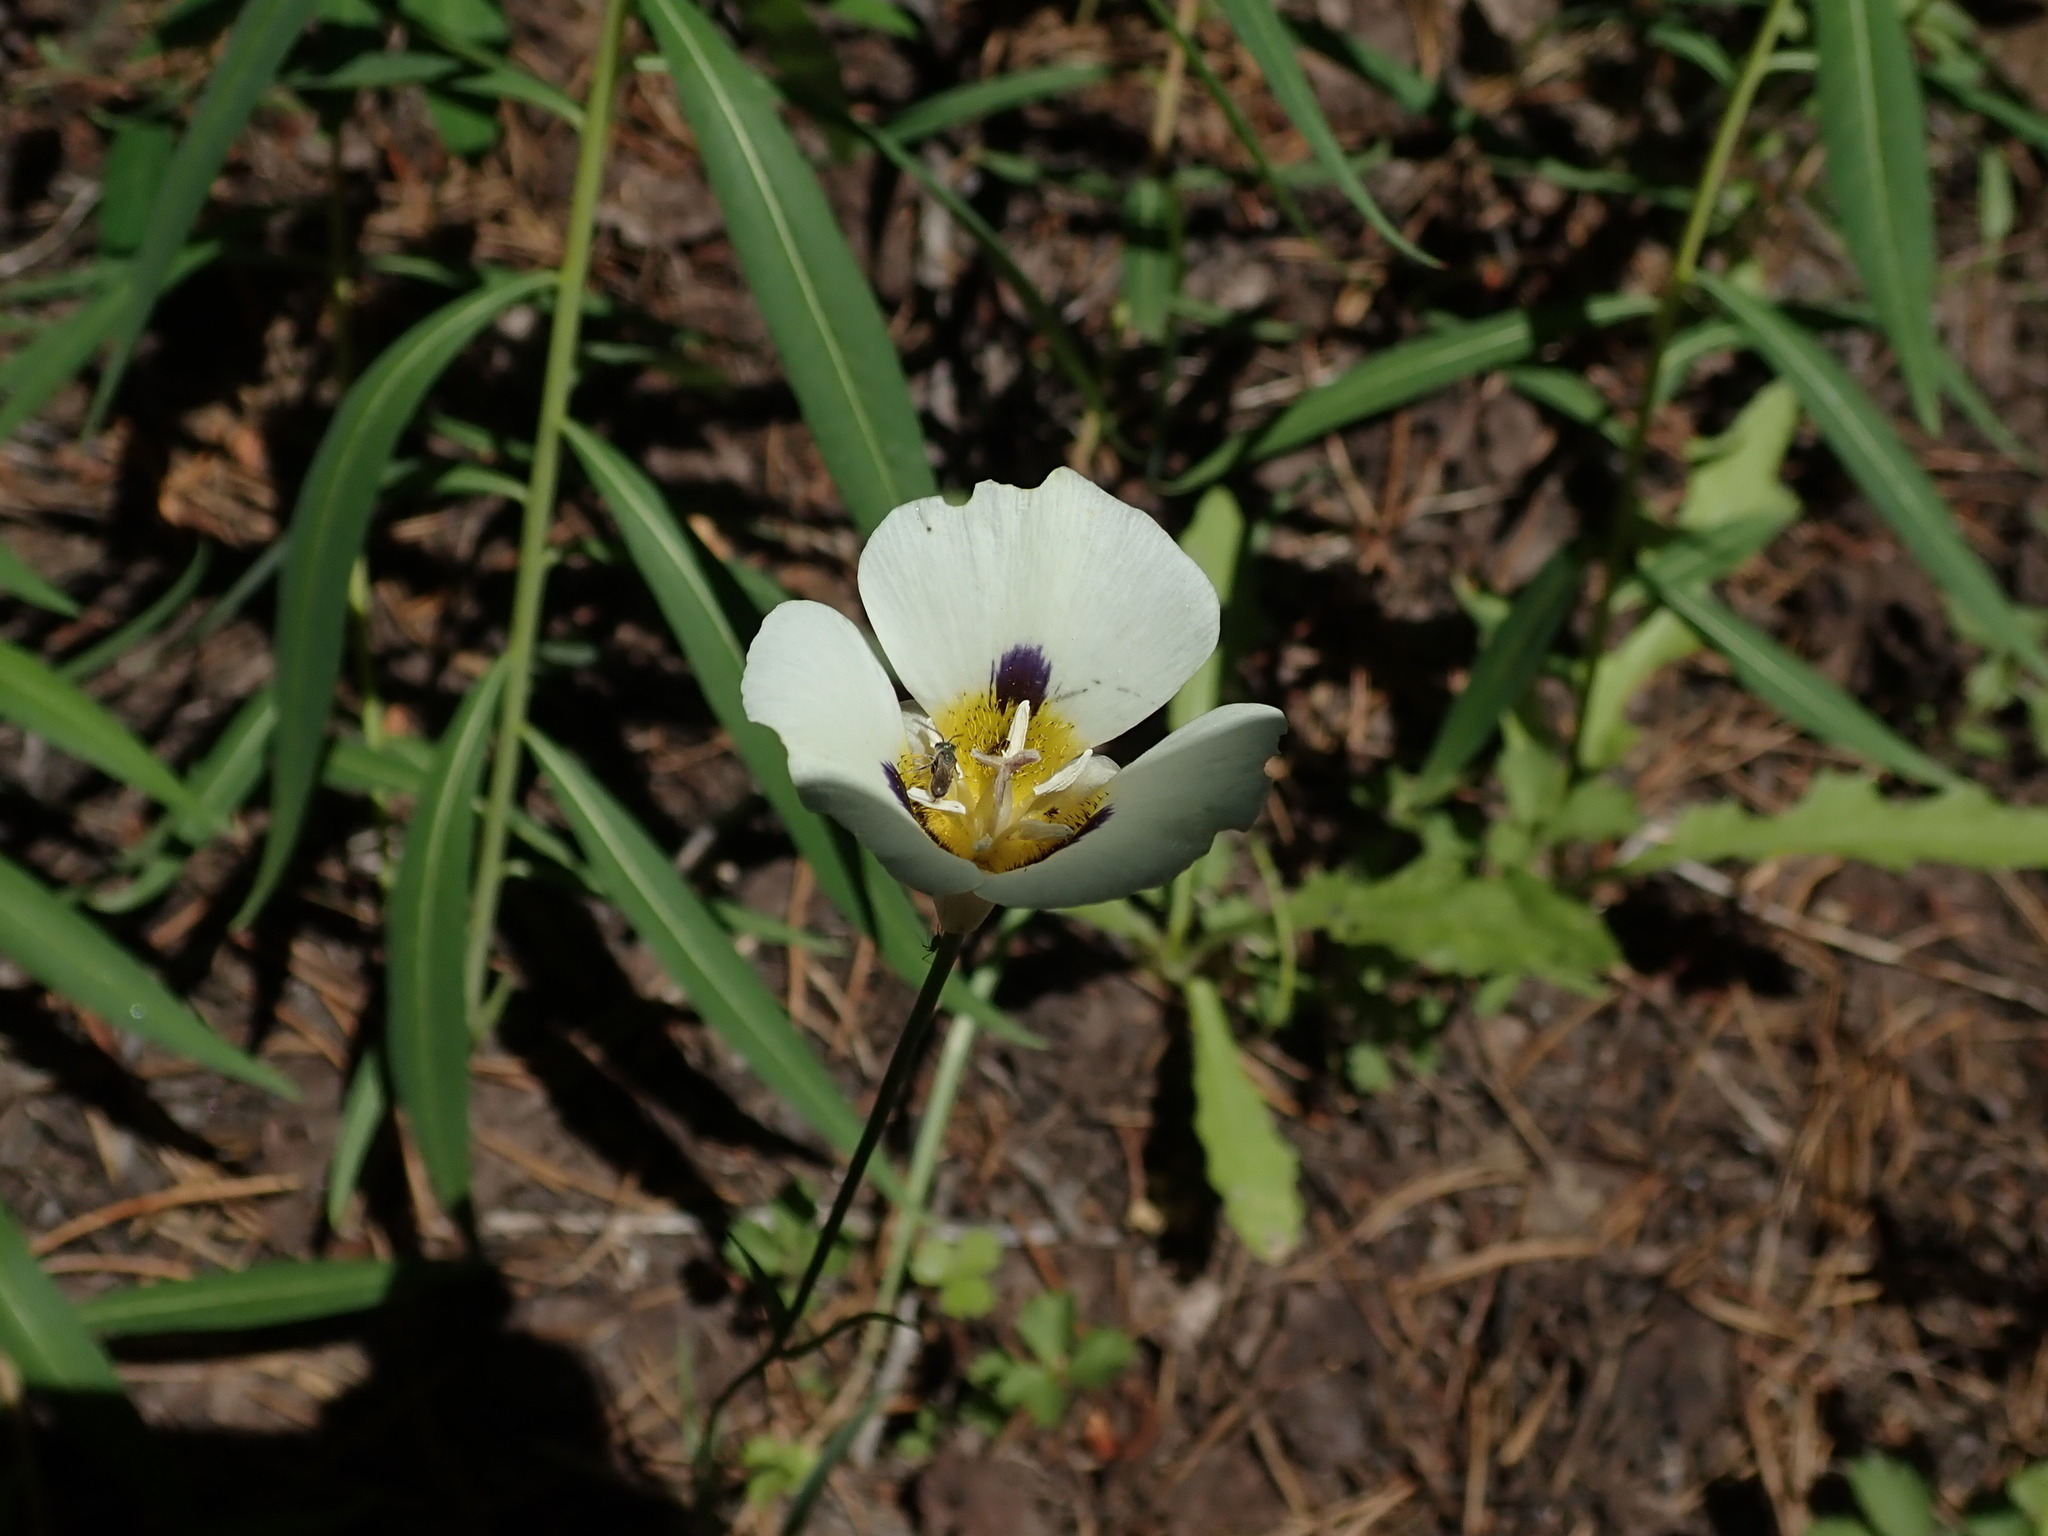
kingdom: Plantae
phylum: Tracheophyta
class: Liliopsida
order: Liliales
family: Liliaceae
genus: Calochortus
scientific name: Calochortus leichtlinii
